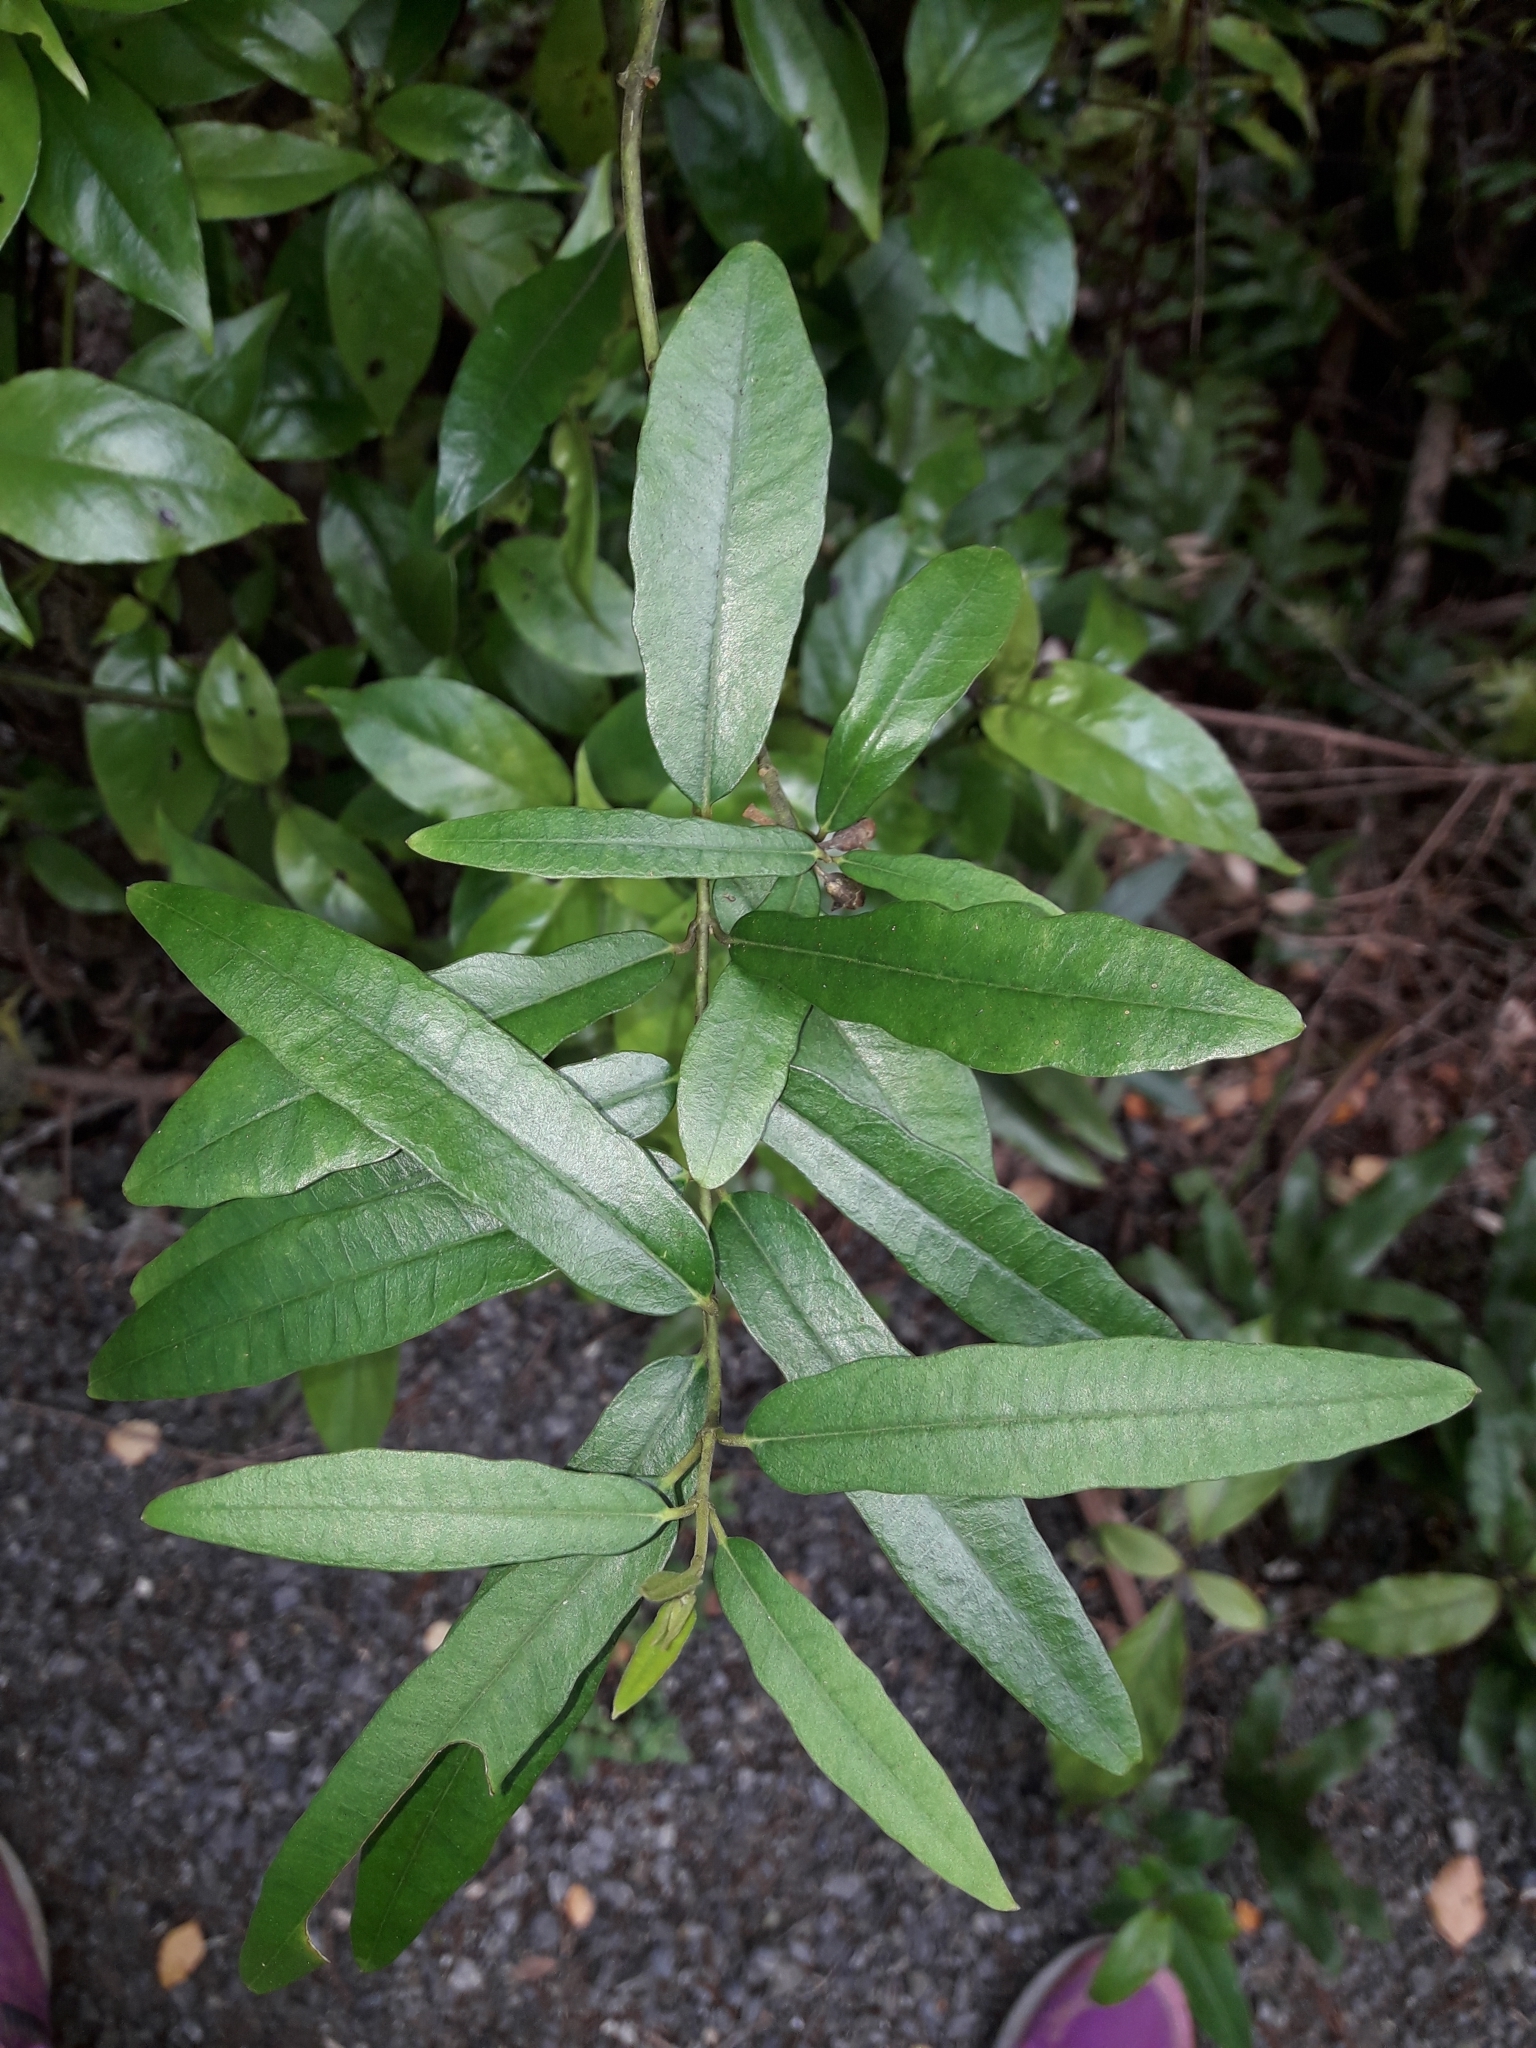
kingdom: Plantae
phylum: Tracheophyta
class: Magnoliopsida
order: Gentianales
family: Apocynaceae
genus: Parsonsia
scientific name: Parsonsia heterophylla
